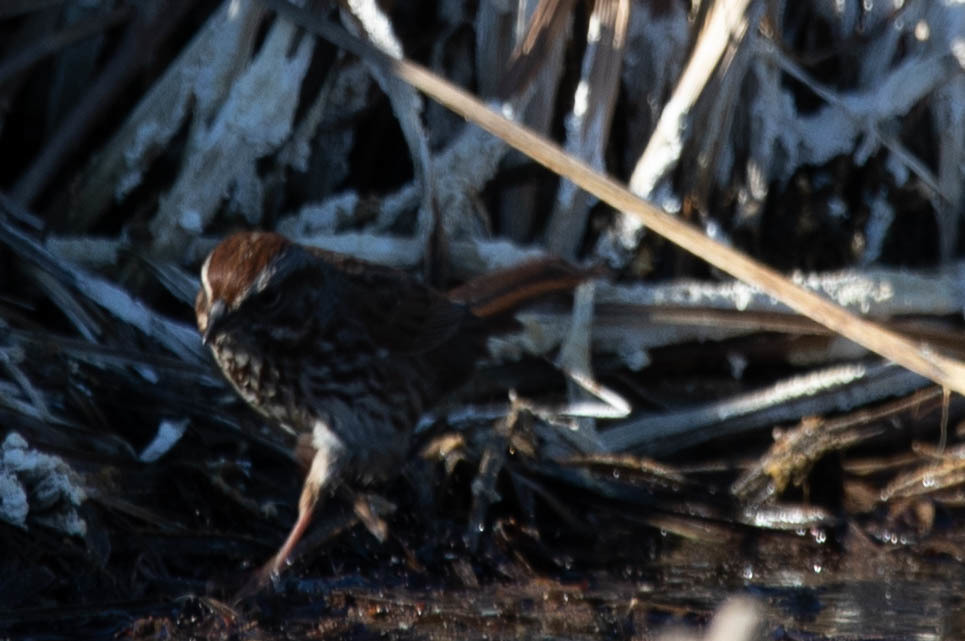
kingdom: Animalia
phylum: Chordata
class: Aves
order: Passeriformes
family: Passerellidae
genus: Melospiza
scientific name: Melospiza melodia
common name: Song sparrow
